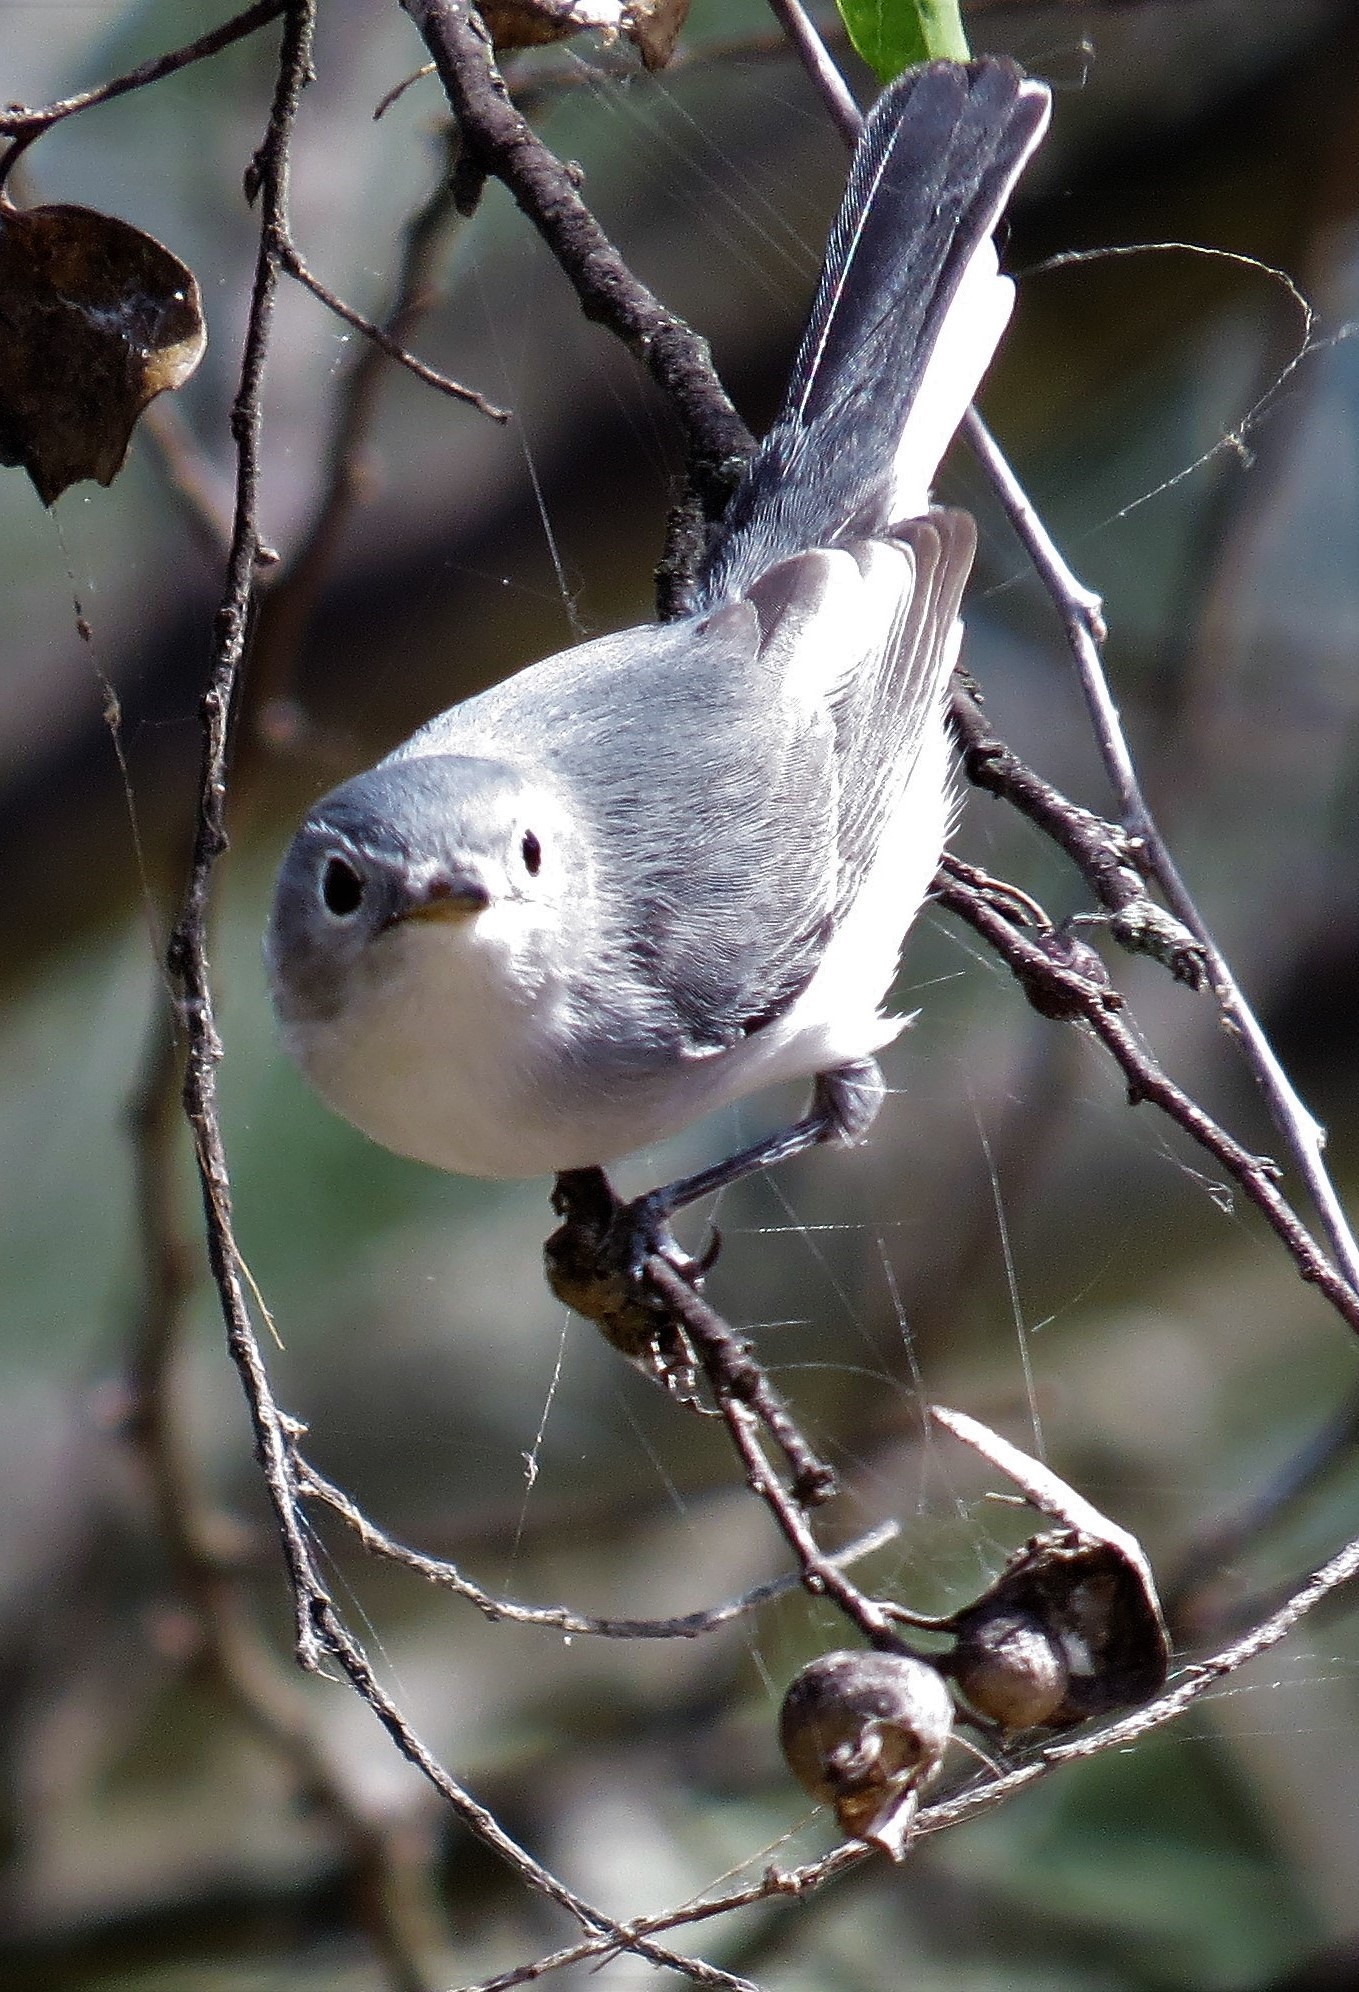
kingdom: Animalia
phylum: Chordata
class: Aves
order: Passeriformes
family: Polioptilidae
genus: Polioptila
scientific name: Polioptila caerulea
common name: Blue-gray gnatcatcher
